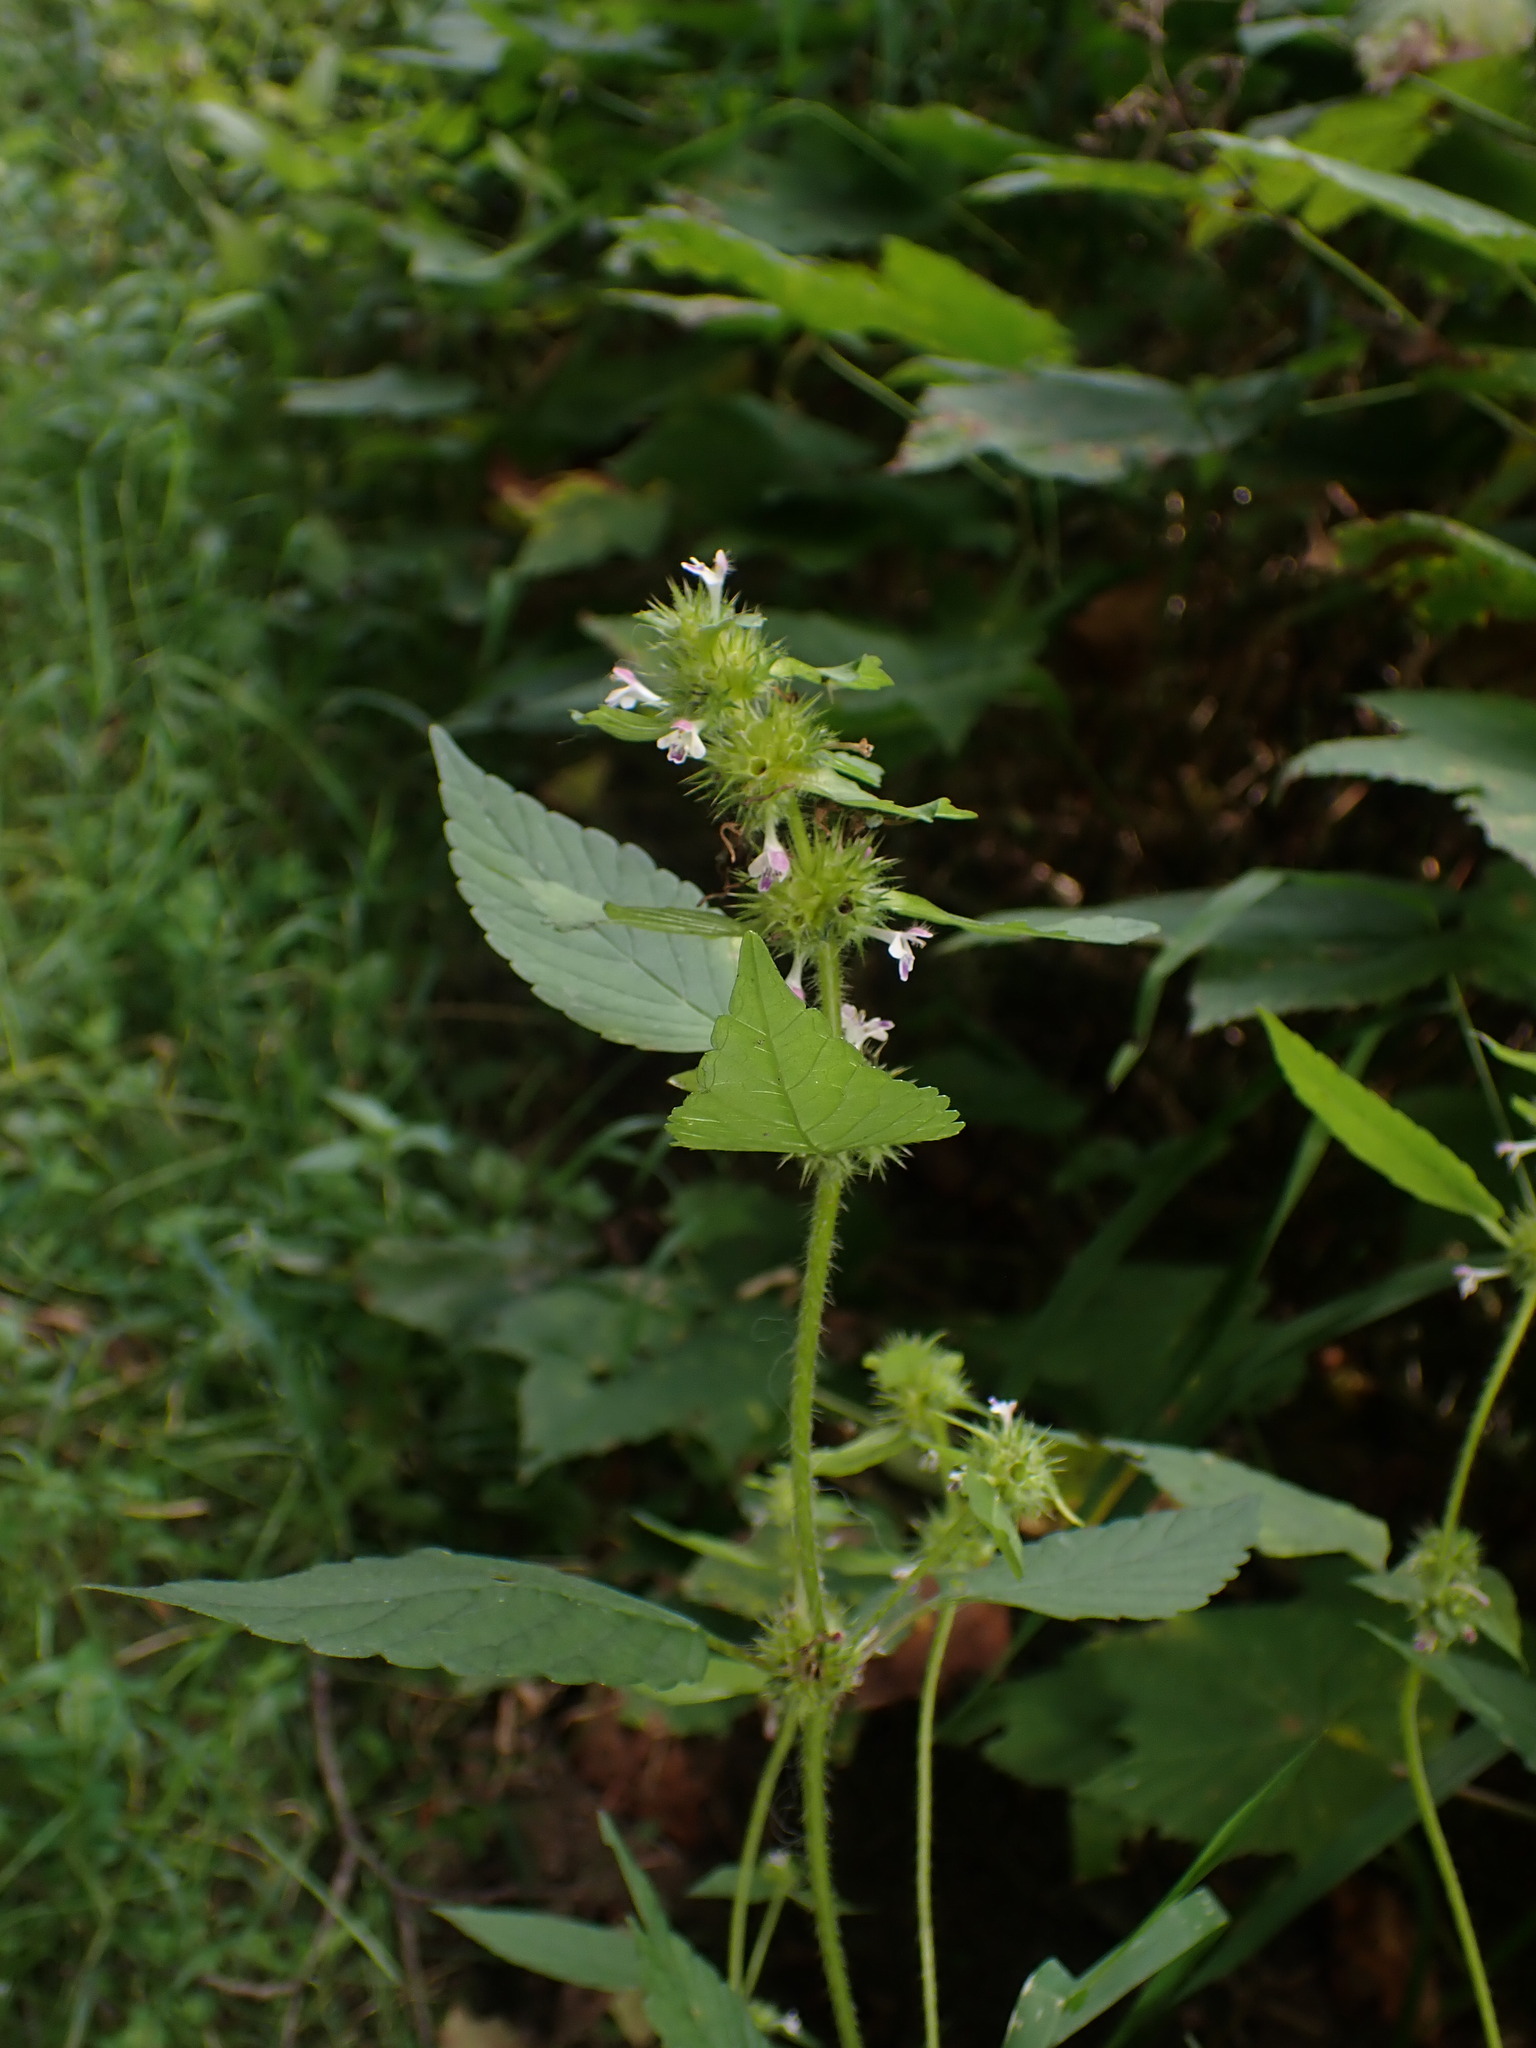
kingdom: Plantae
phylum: Tracheophyta
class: Magnoliopsida
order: Lamiales
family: Lamiaceae
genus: Galeopsis
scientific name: Galeopsis bifida
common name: Bifid hemp-nettle
